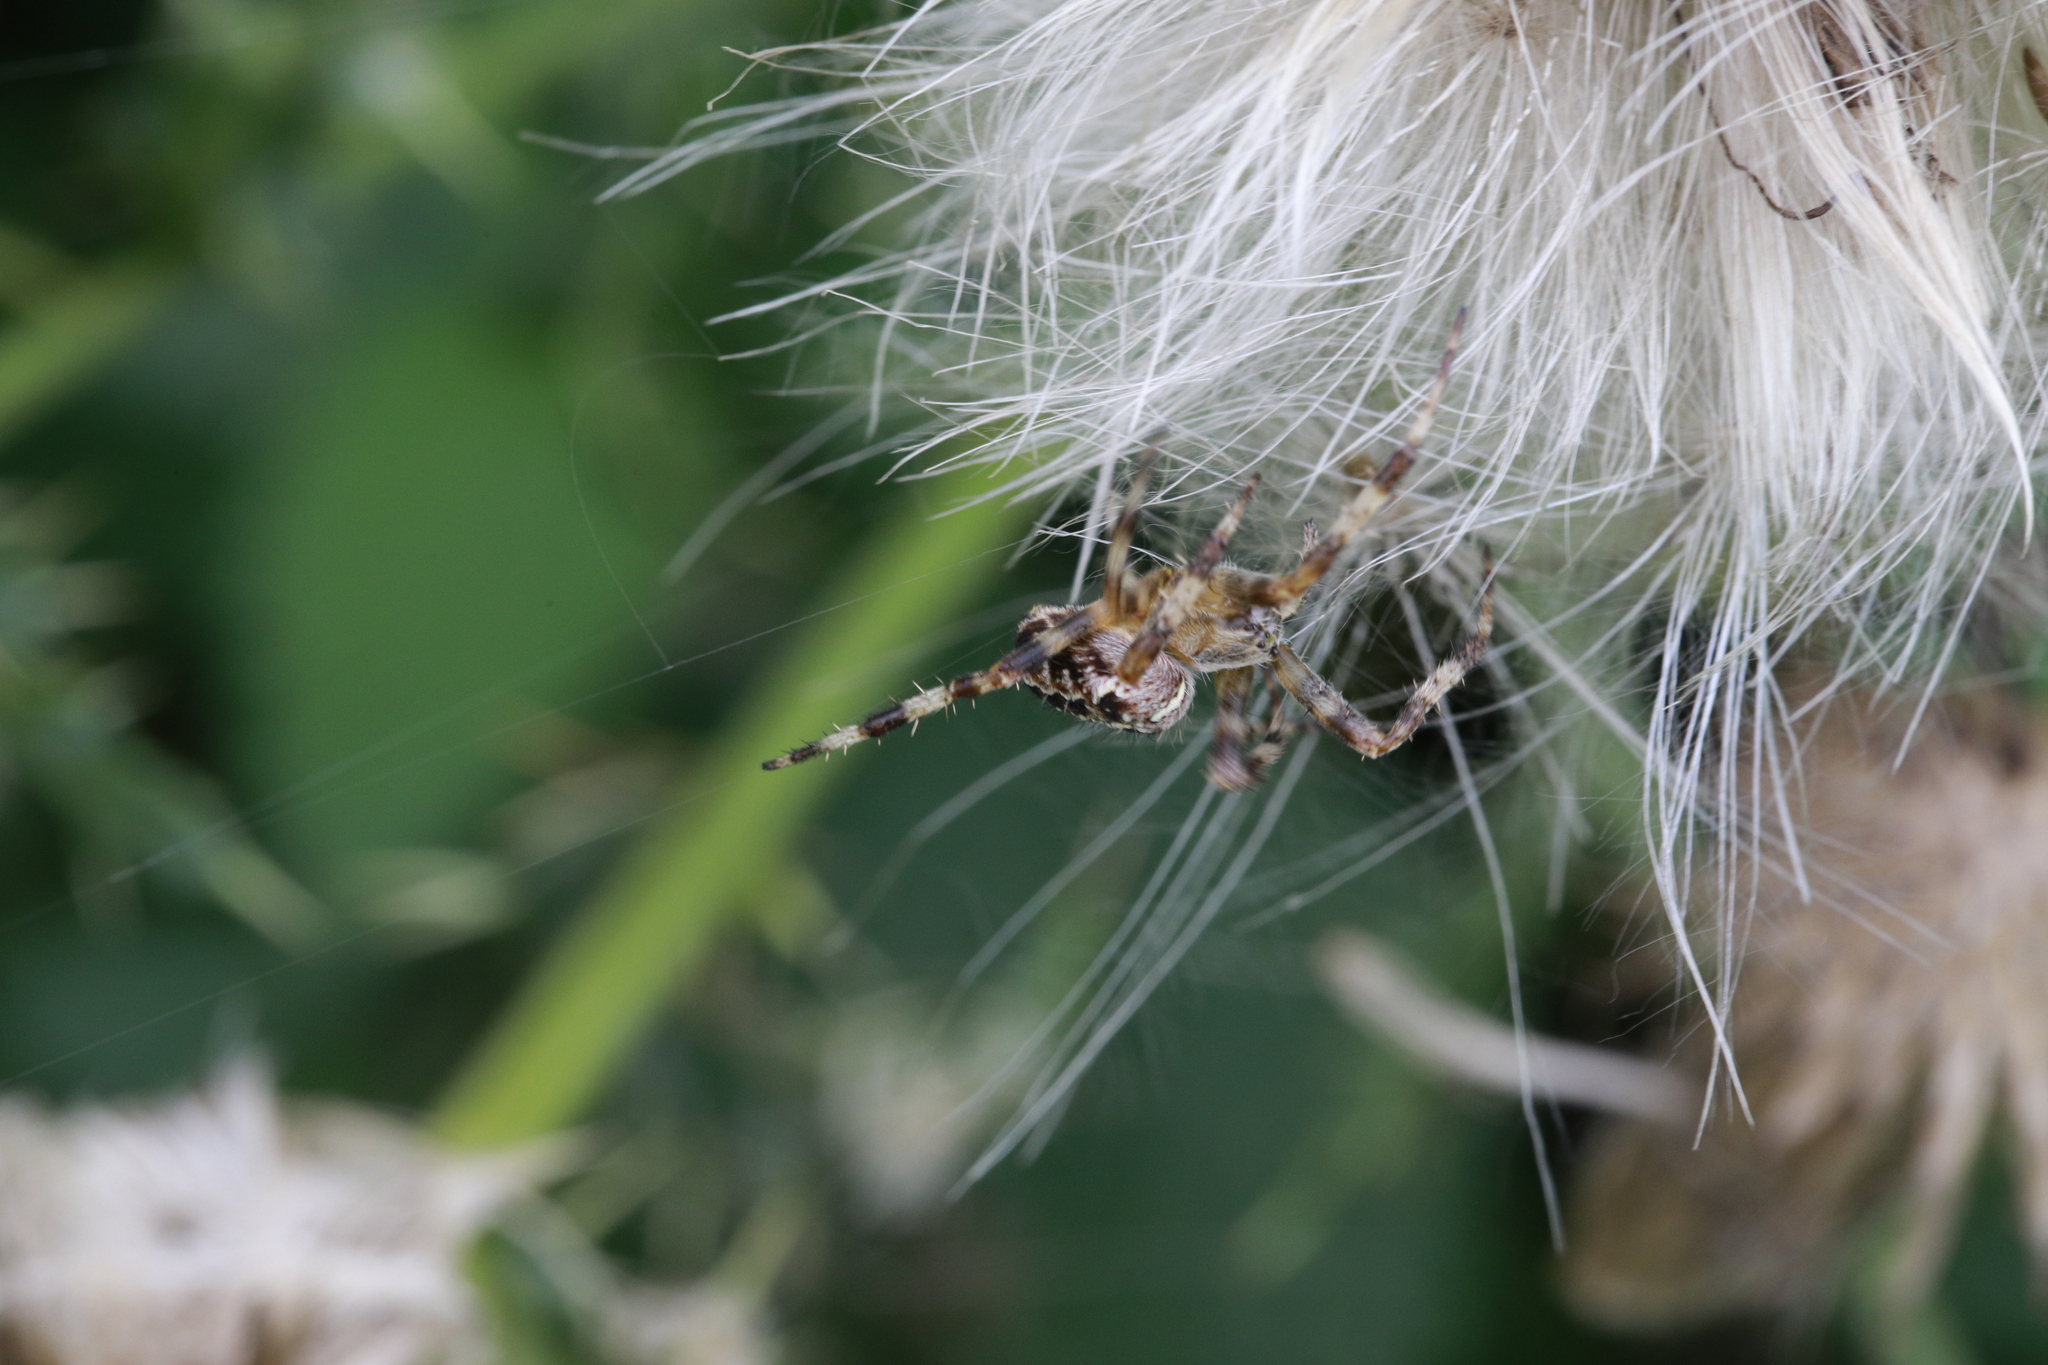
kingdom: Animalia
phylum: Arthropoda
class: Arachnida
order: Araneae
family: Araneidae
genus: Araneus
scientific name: Araneus diadematus
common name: Cross orbweaver
